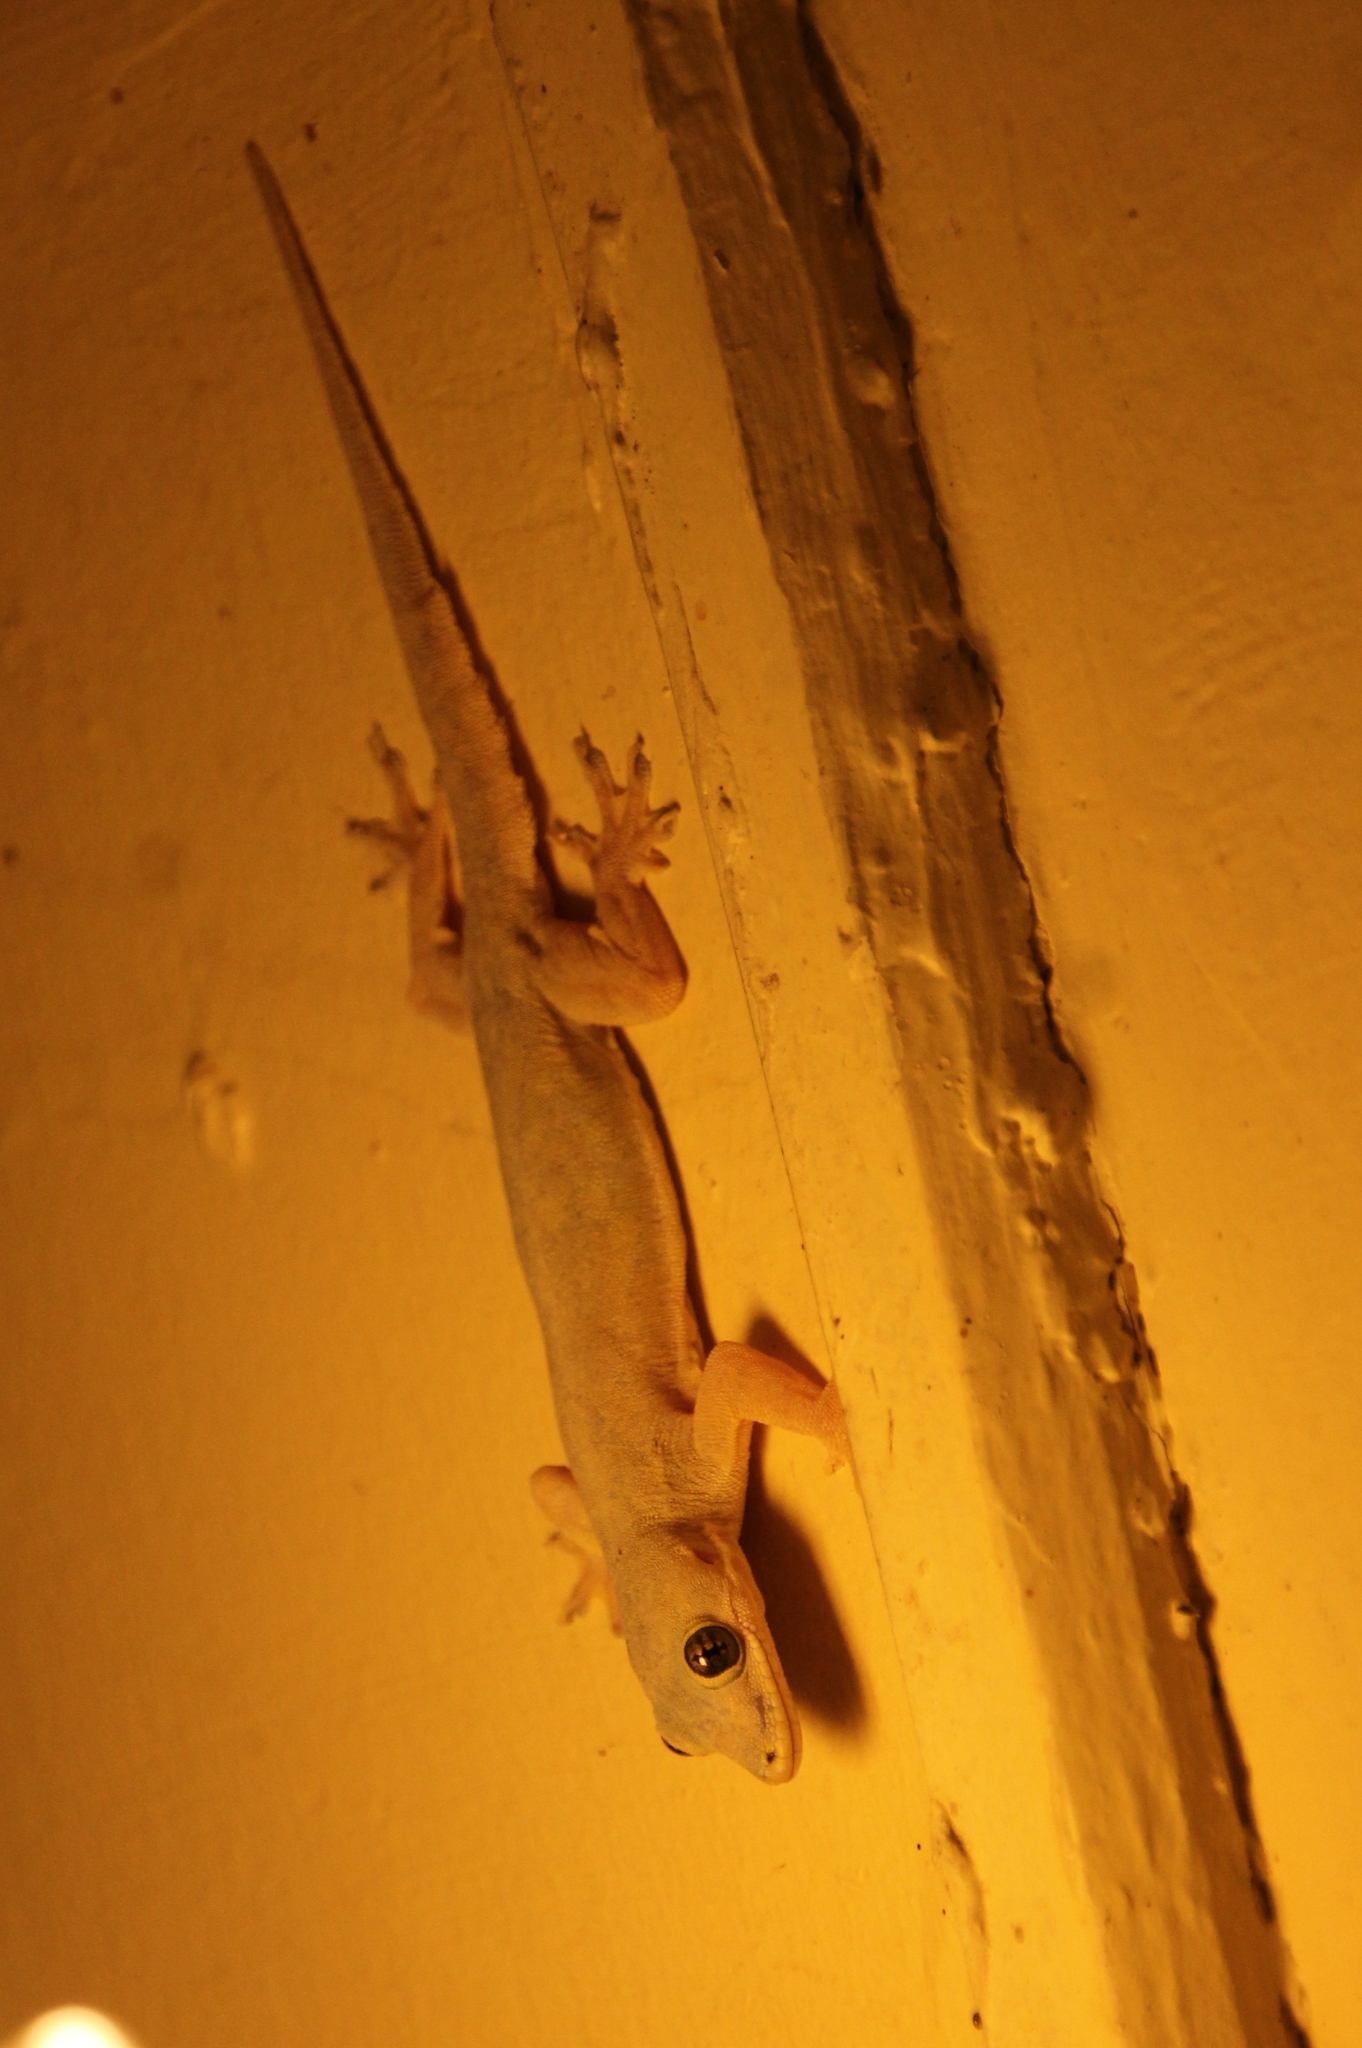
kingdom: Animalia
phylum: Chordata
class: Squamata
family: Gekkonidae
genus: Hemidactylus
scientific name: Hemidactylus platyurus
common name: Flat-tailed house gecko
